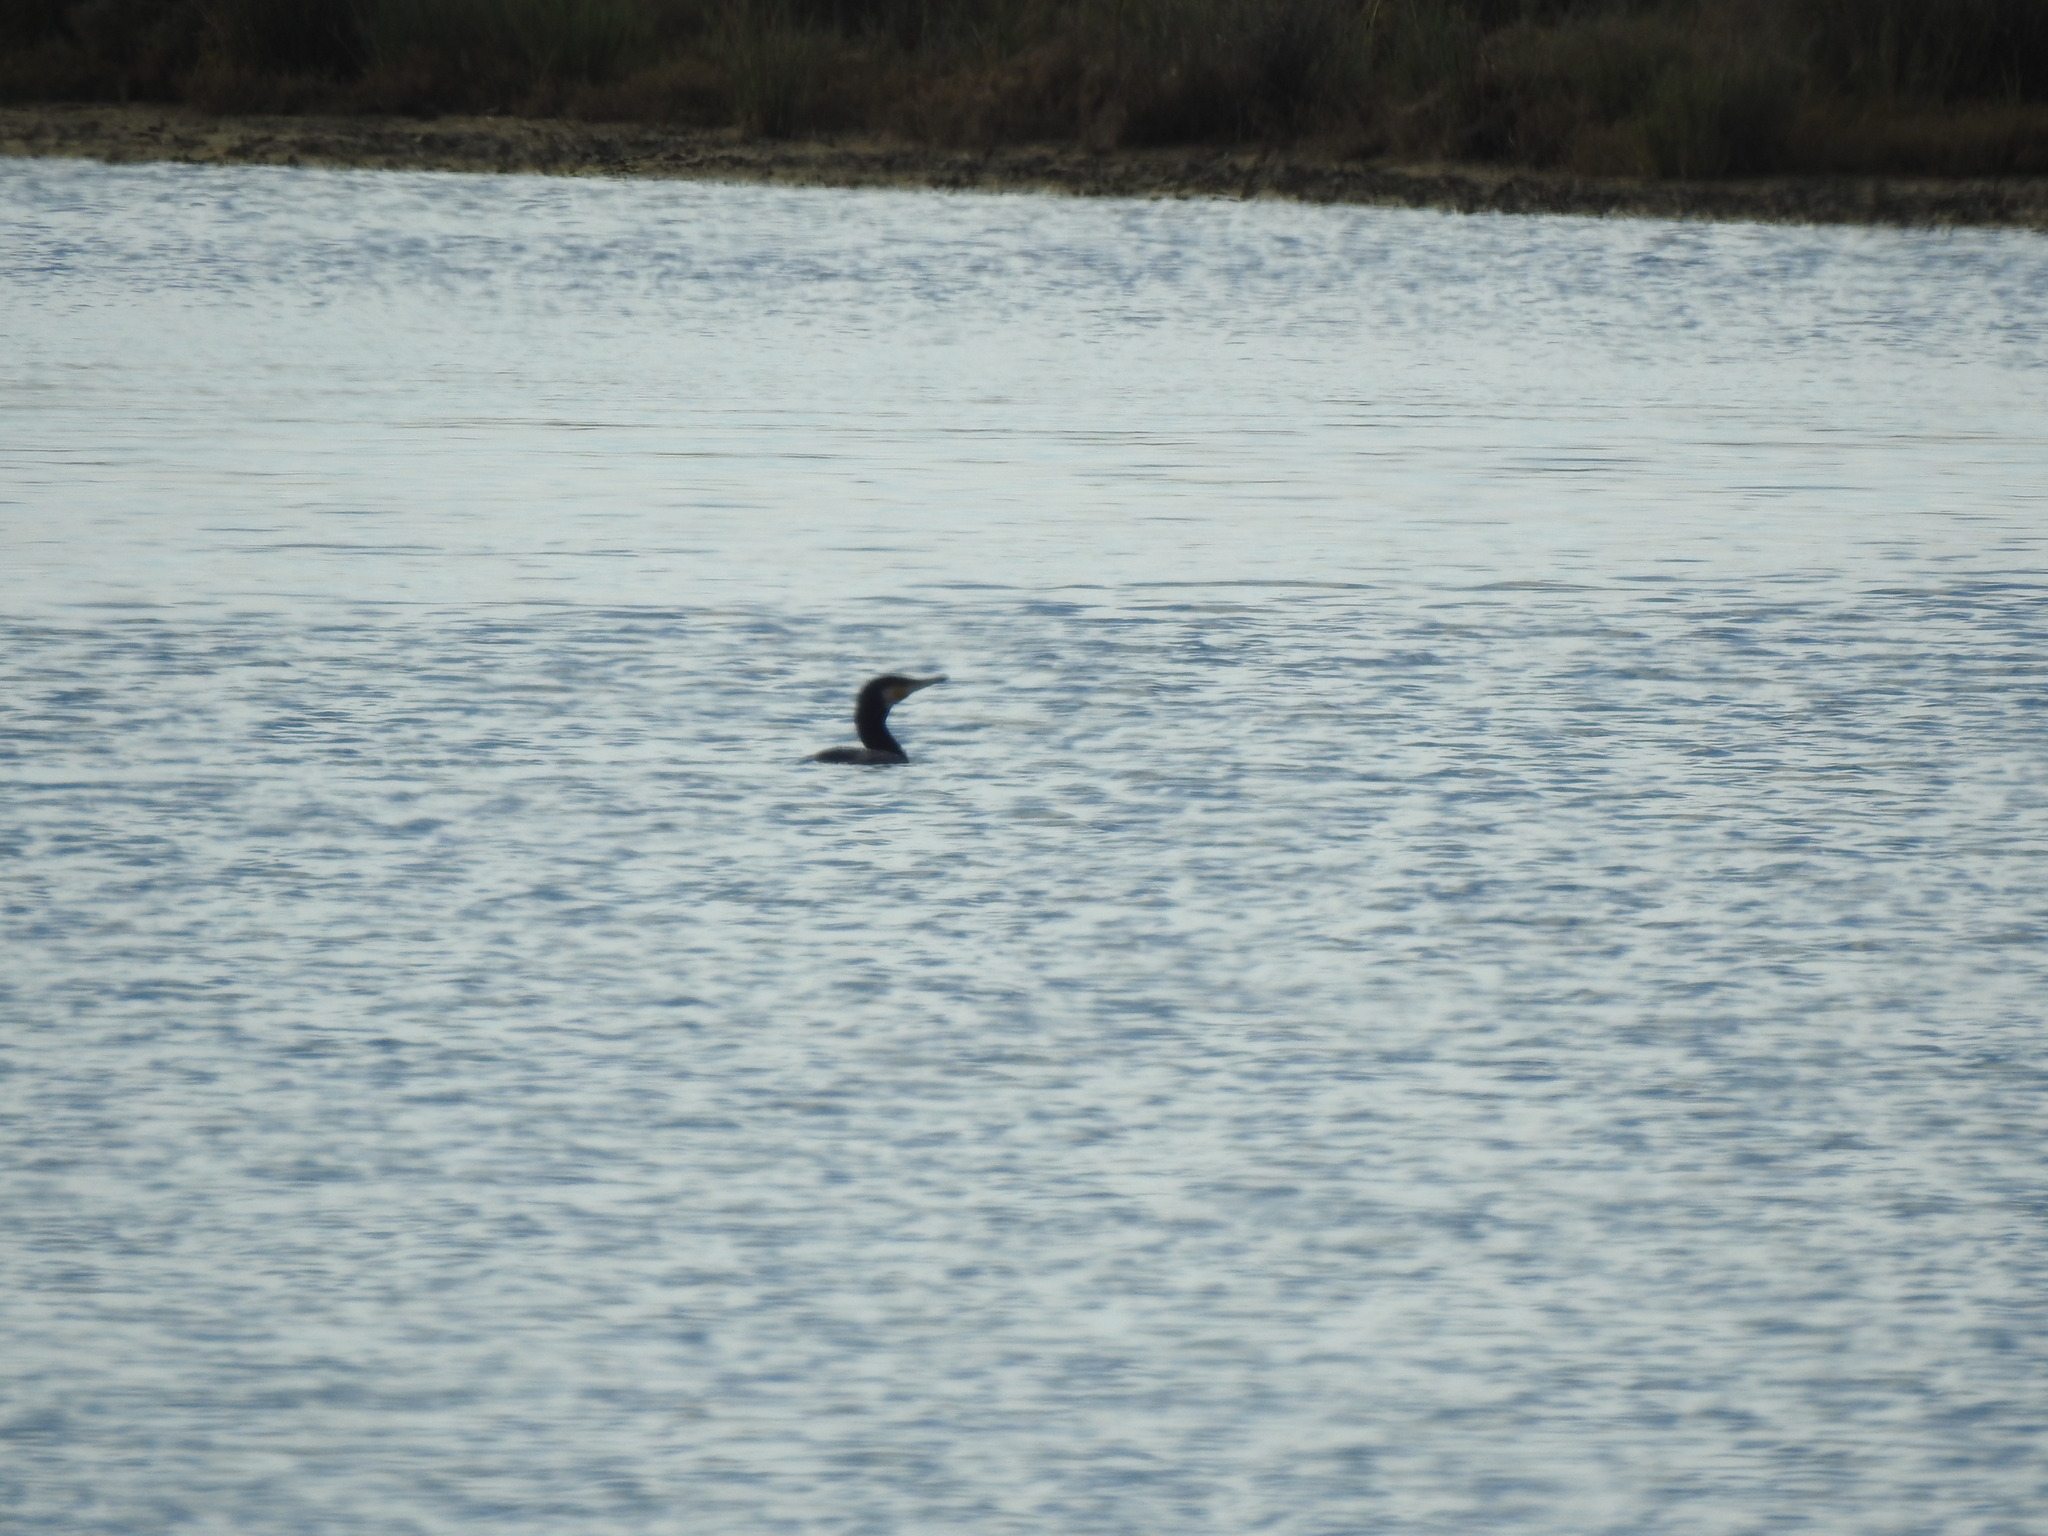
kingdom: Animalia
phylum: Chordata
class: Aves
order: Suliformes
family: Phalacrocoracidae
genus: Phalacrocorax
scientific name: Phalacrocorax carbo
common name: Great cormorant
